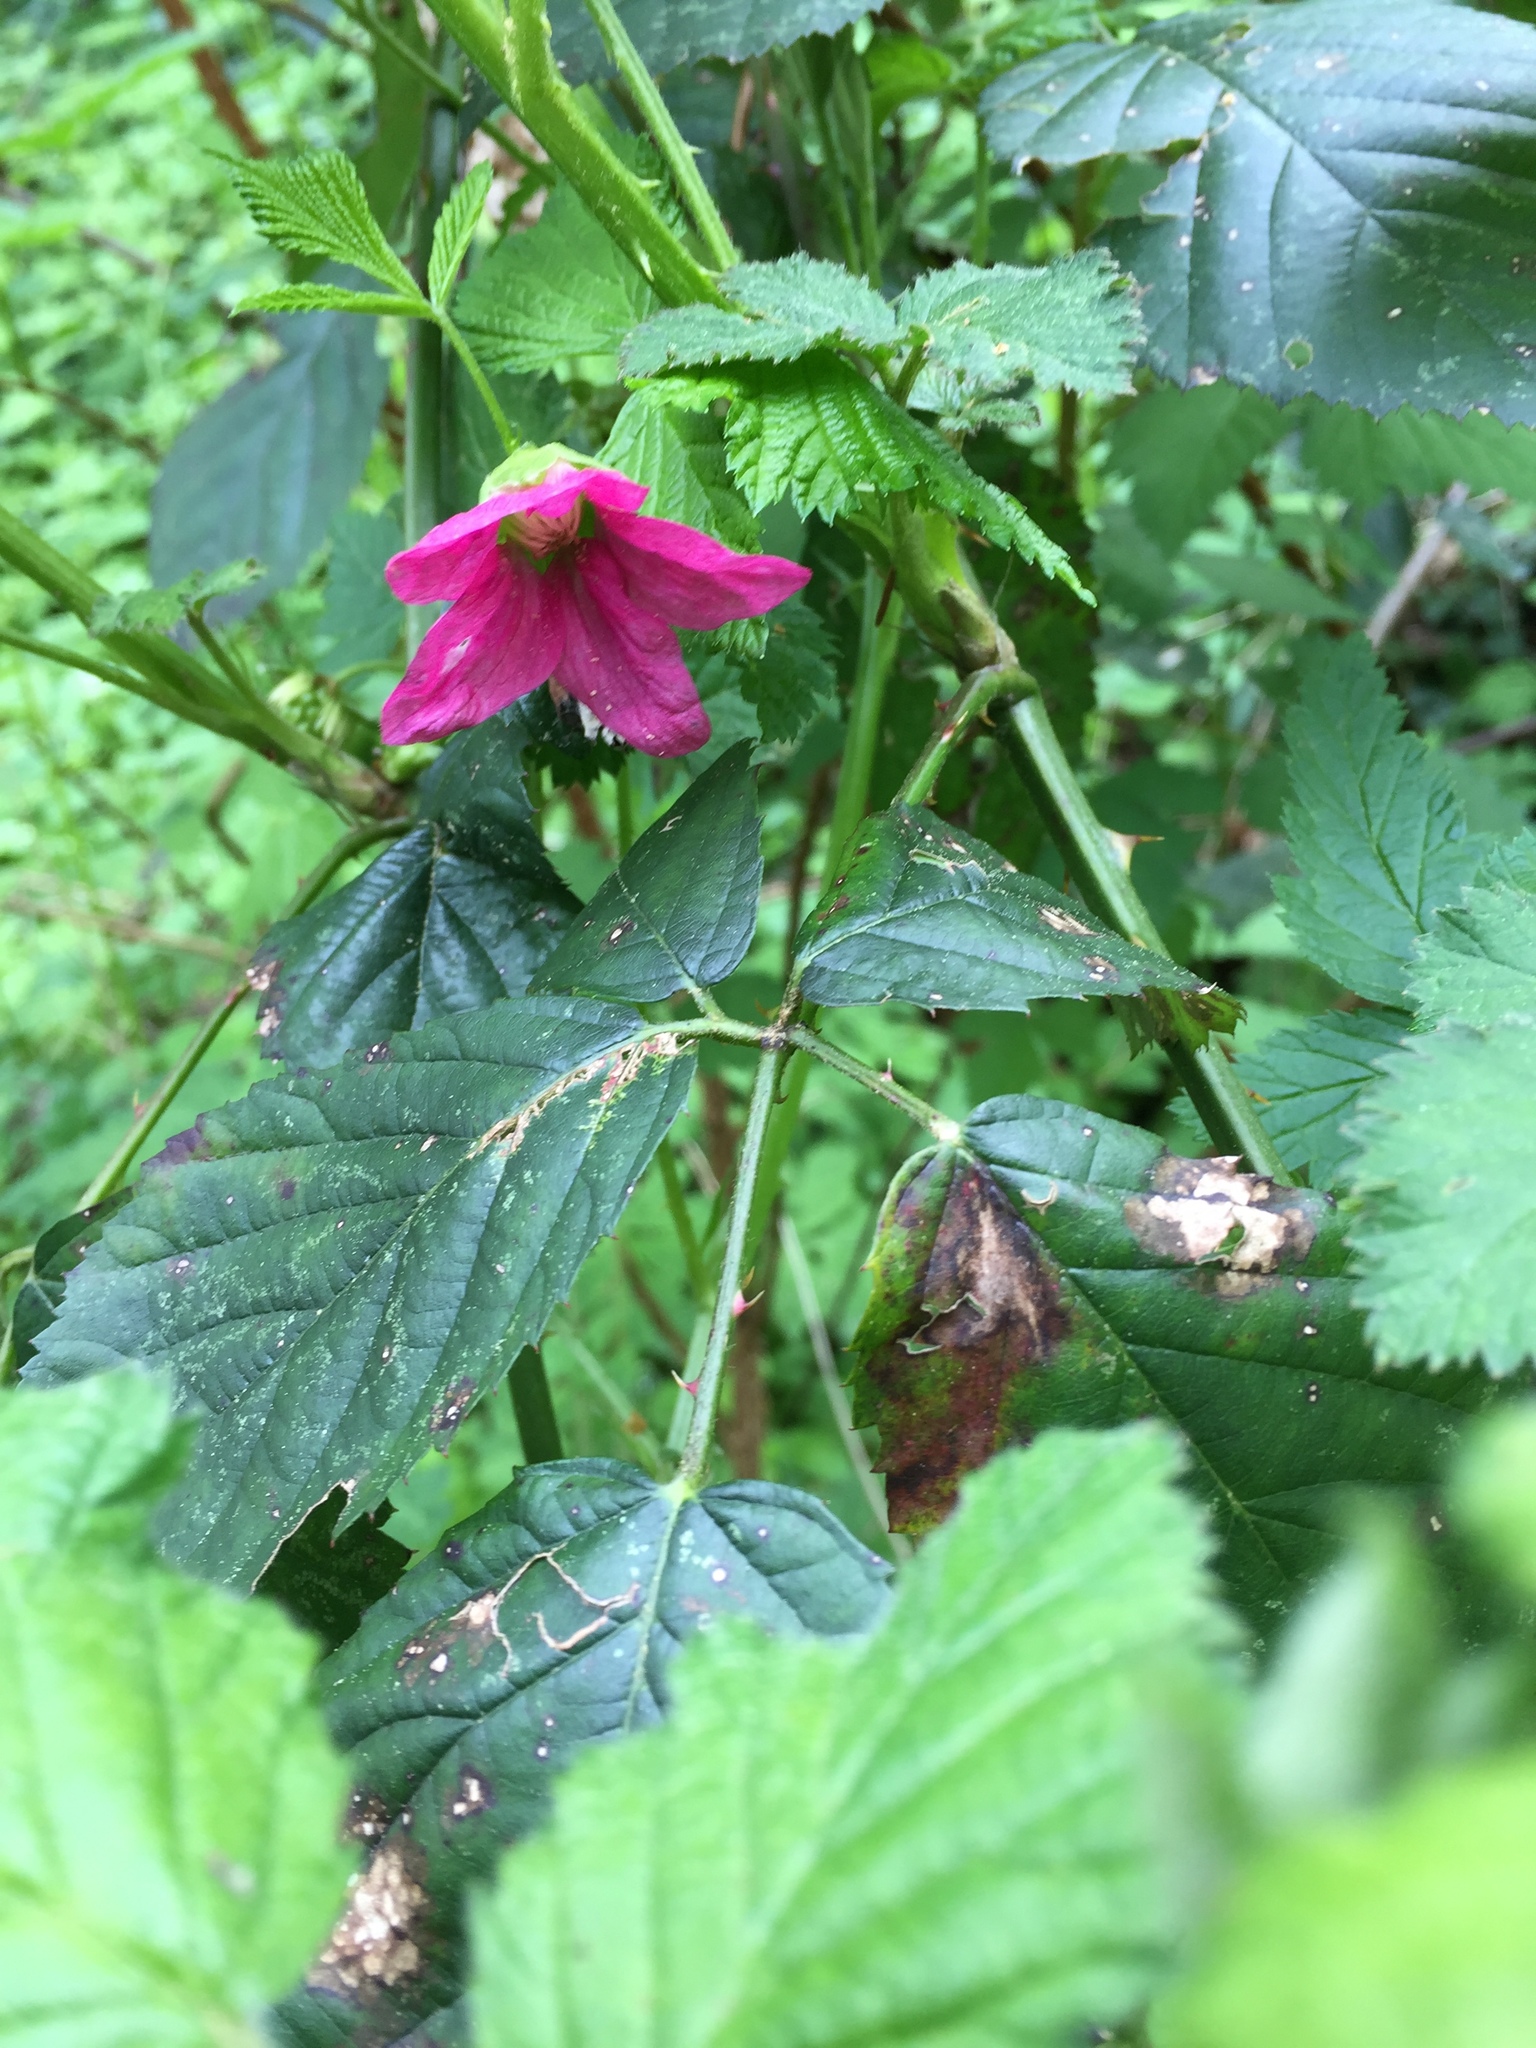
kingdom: Plantae
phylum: Tracheophyta
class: Magnoliopsida
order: Rosales
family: Rosaceae
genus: Rubus
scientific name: Rubus spectabilis
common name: Salmonberry
